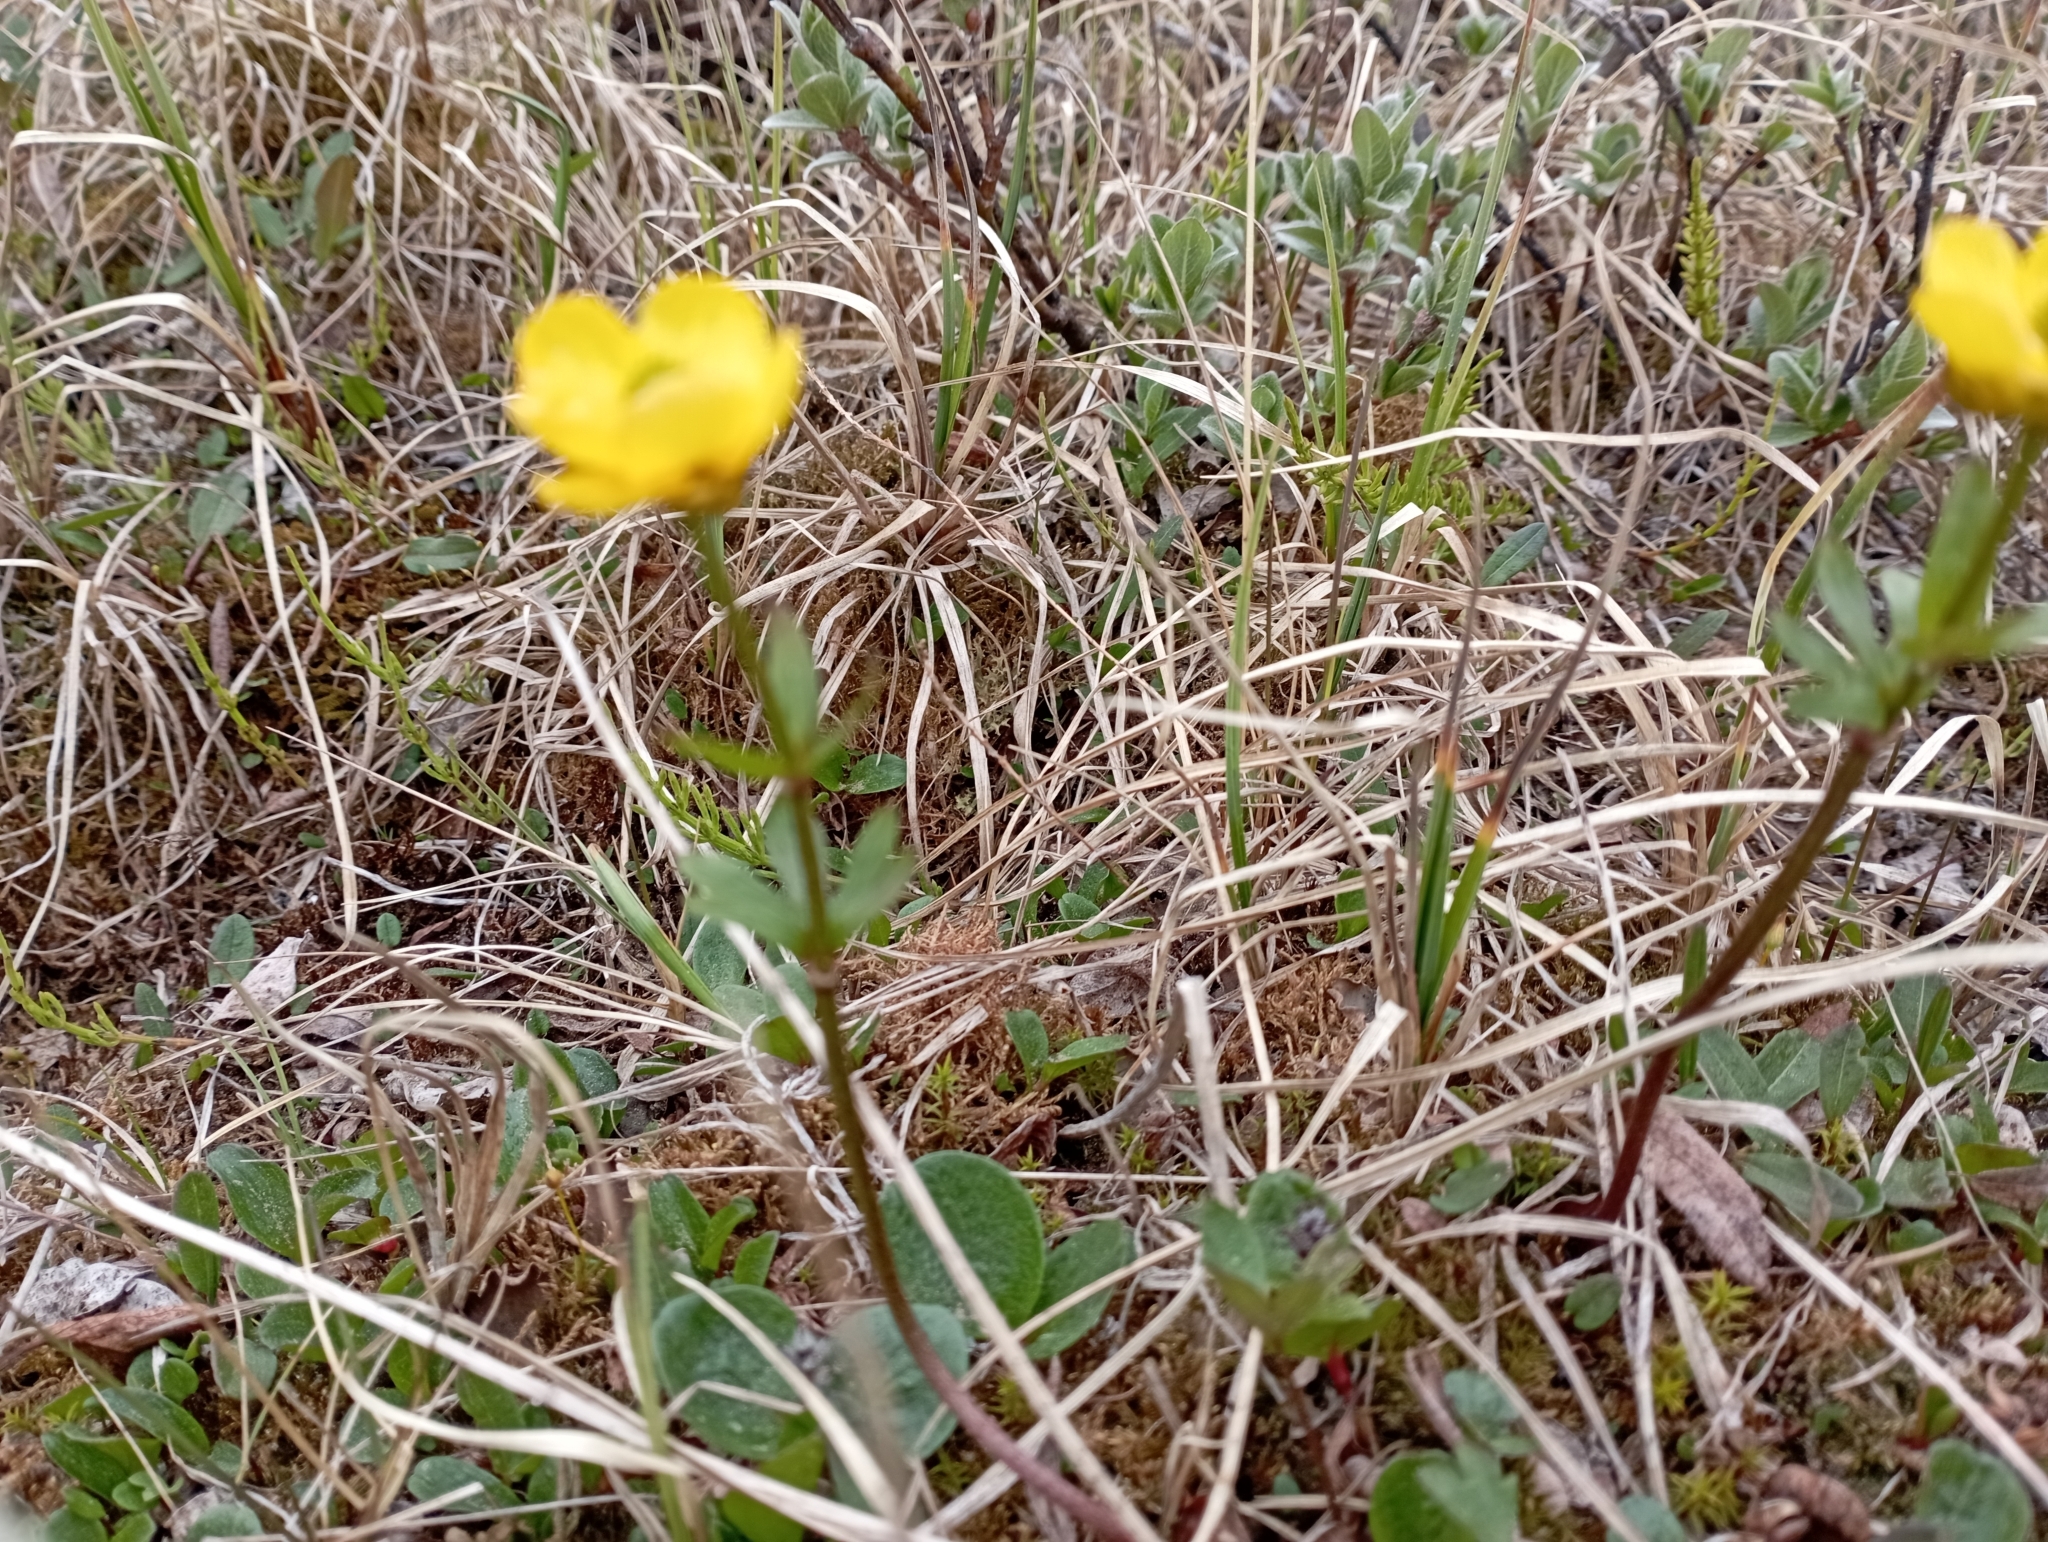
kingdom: Plantae
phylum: Tracheophyta
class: Magnoliopsida
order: Ranunculales
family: Ranunculaceae
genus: Ranunculus
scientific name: Ranunculus propinquus
